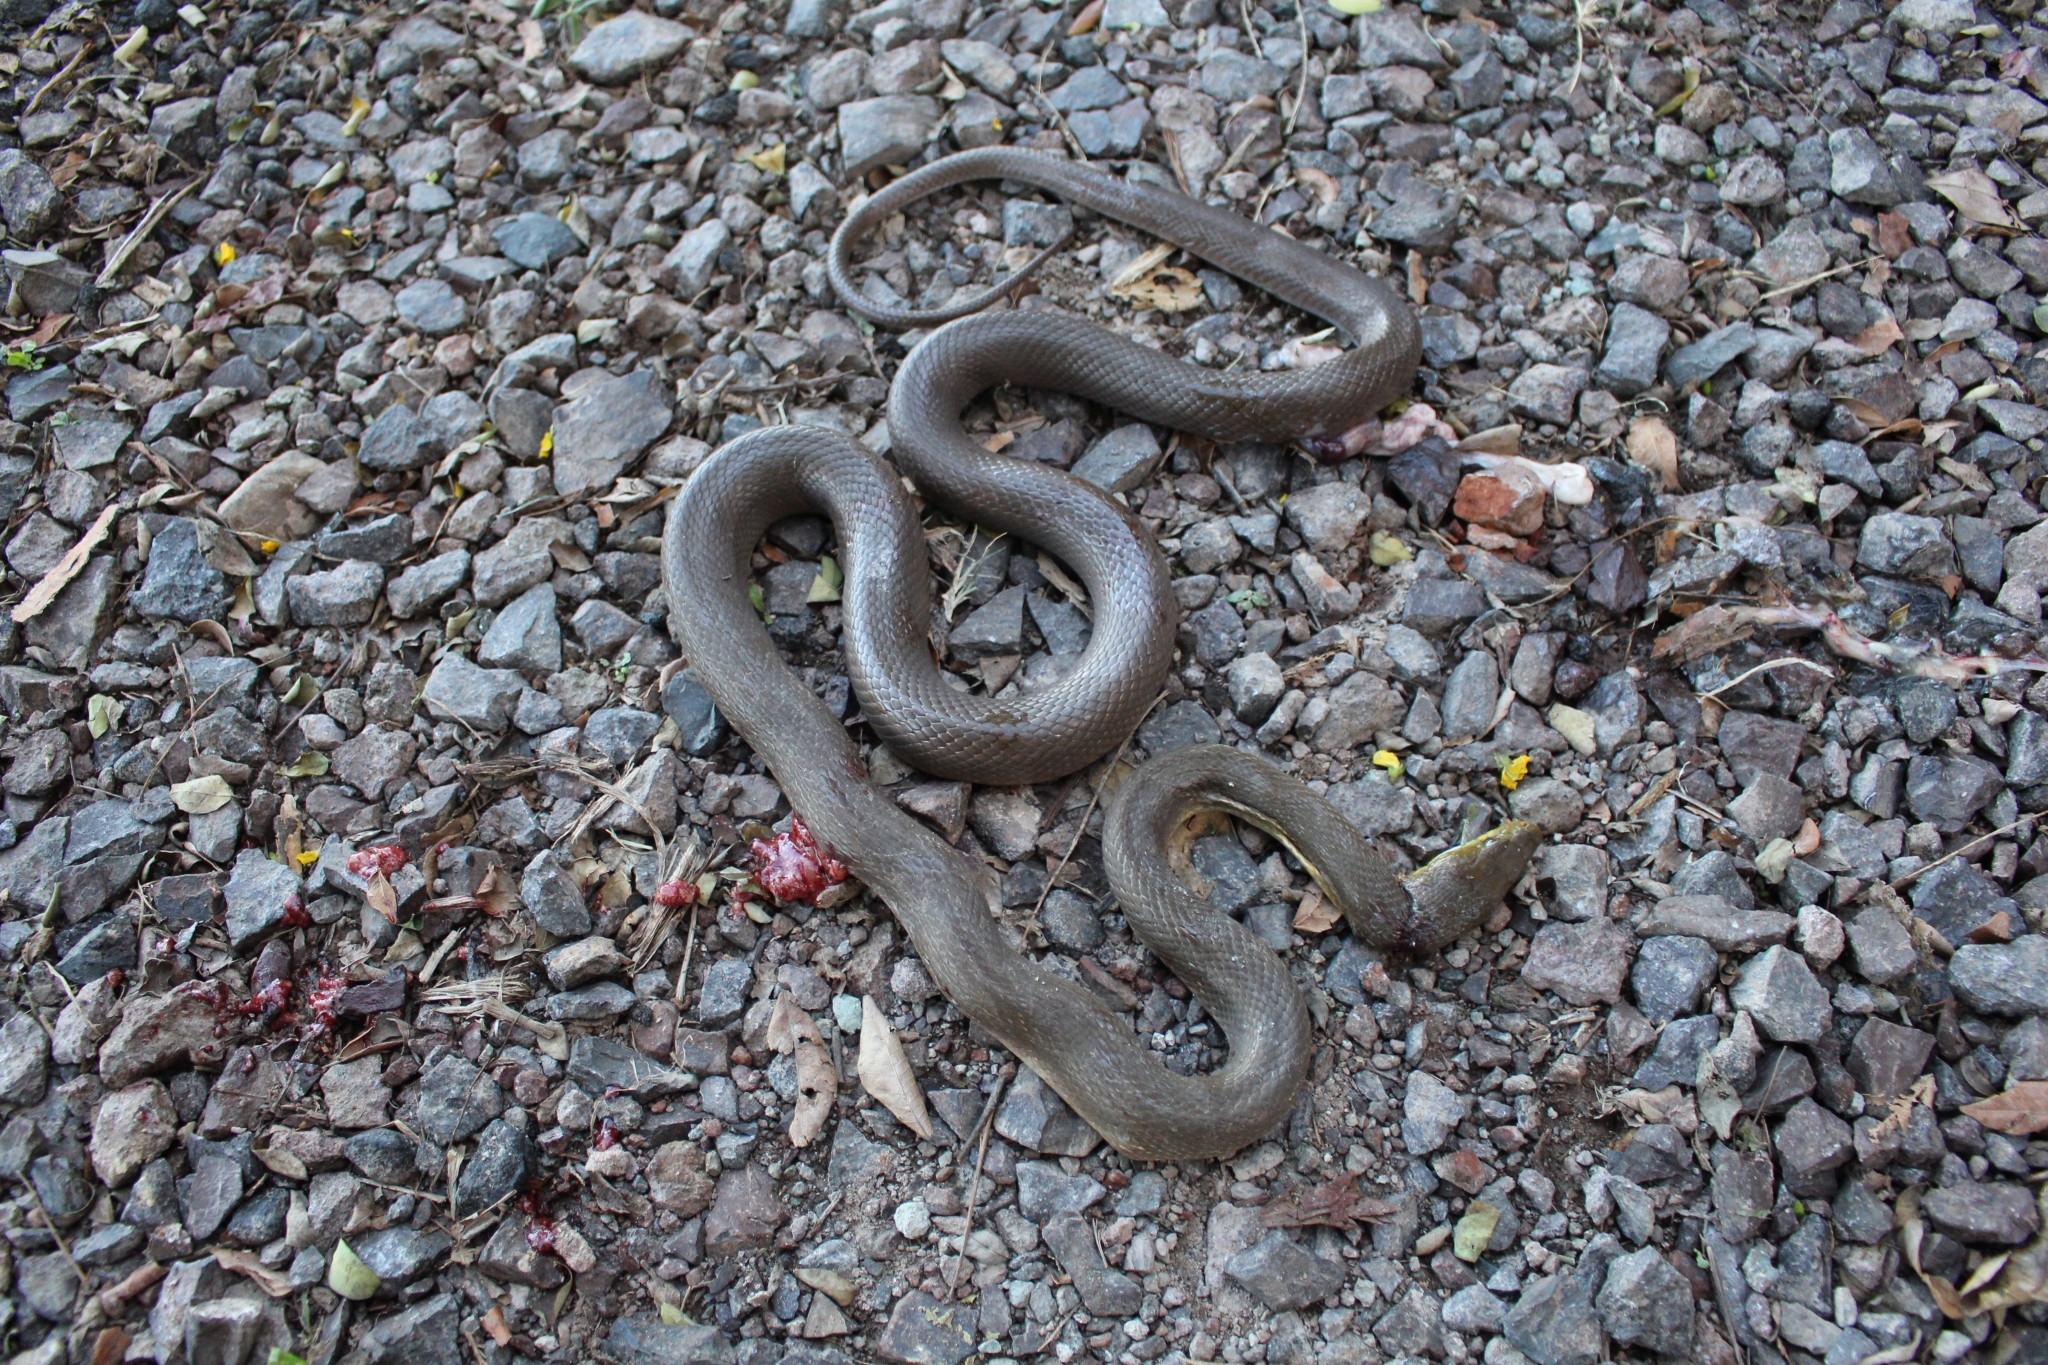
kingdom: Animalia
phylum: Chordata
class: Squamata
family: Colubridae
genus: Senticolis
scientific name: Senticolis triaspis
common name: Green rat snake
